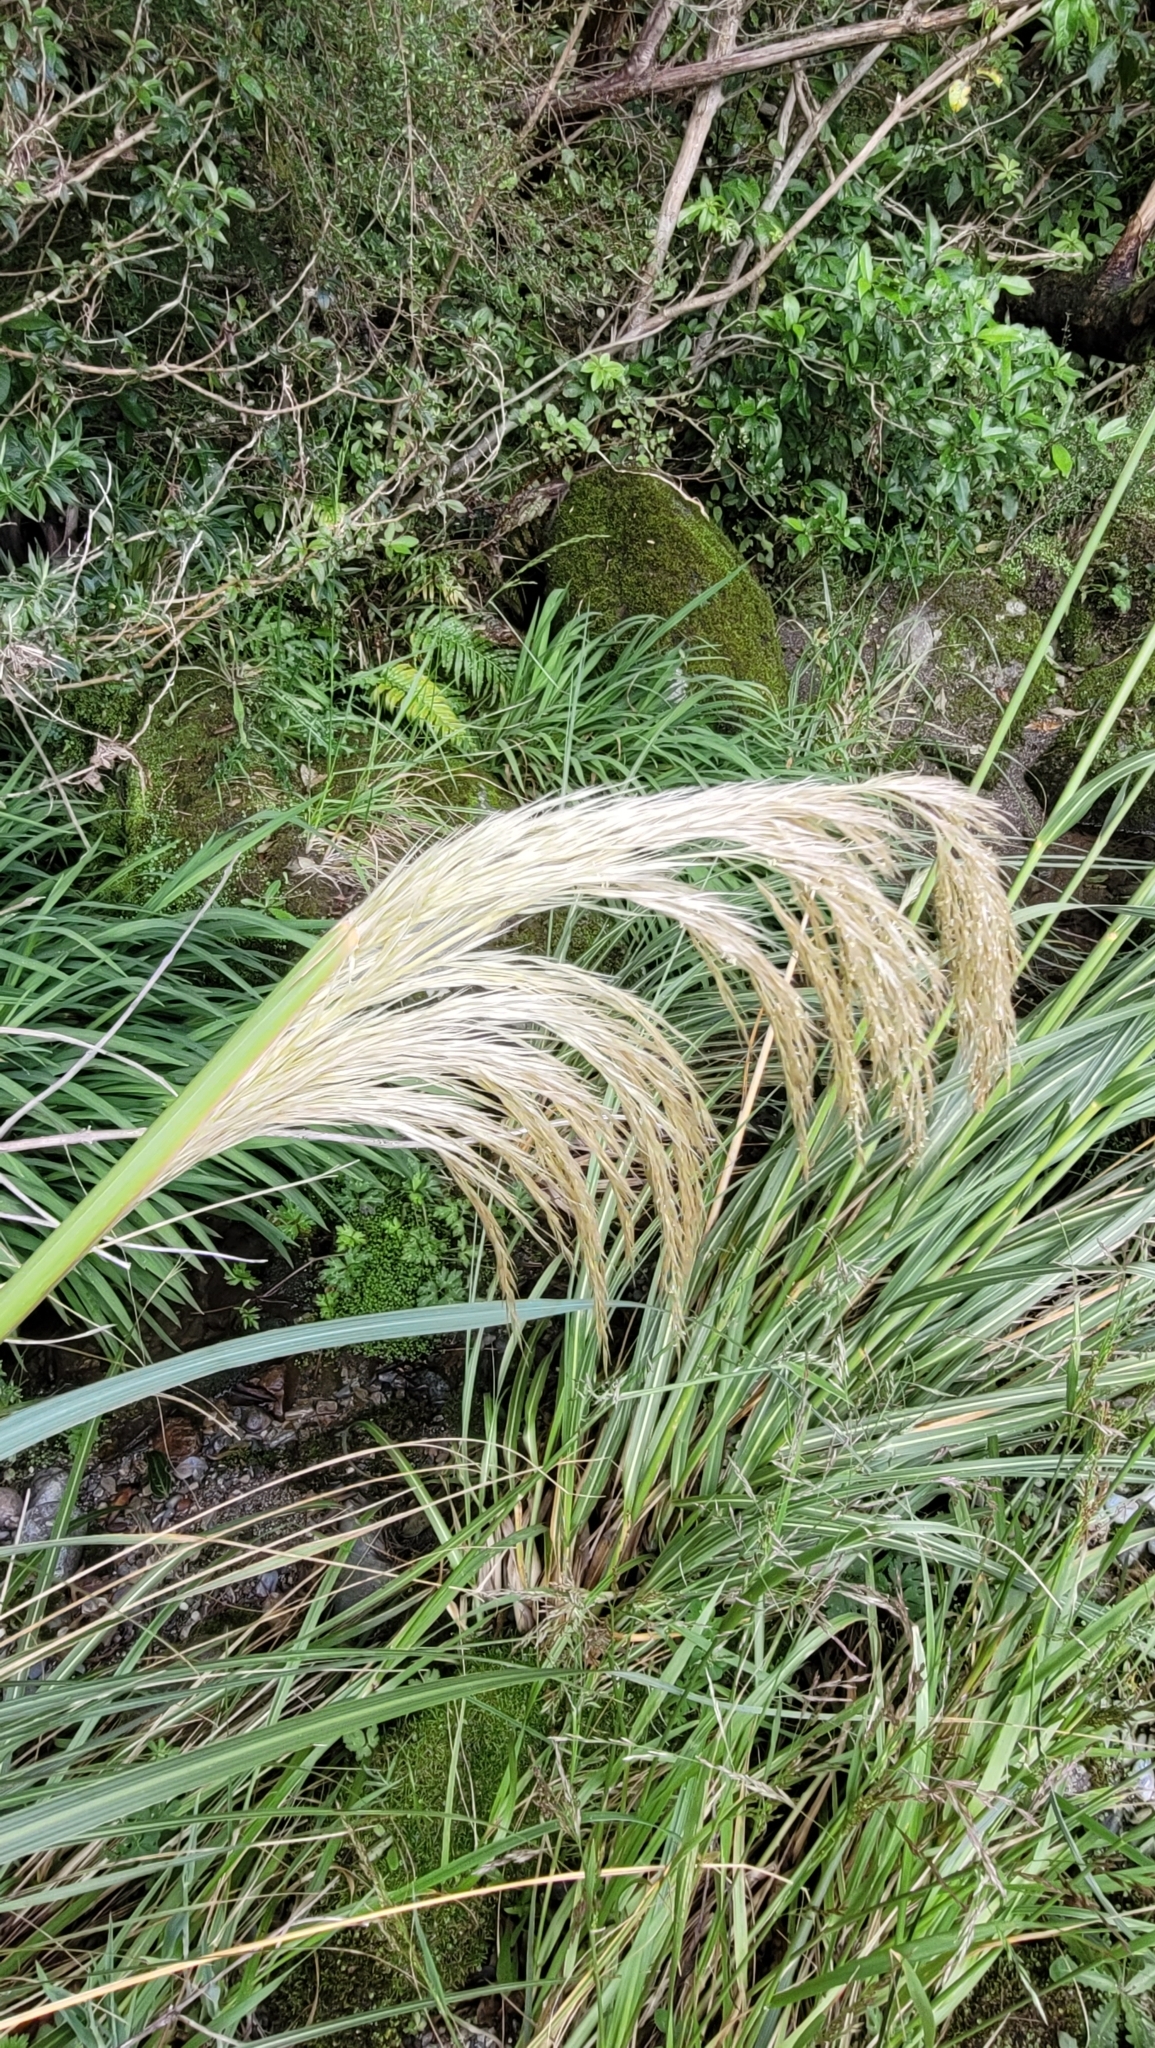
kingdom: Plantae
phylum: Tracheophyta
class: Liliopsida
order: Poales
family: Poaceae
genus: Austroderia
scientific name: Austroderia richardii
